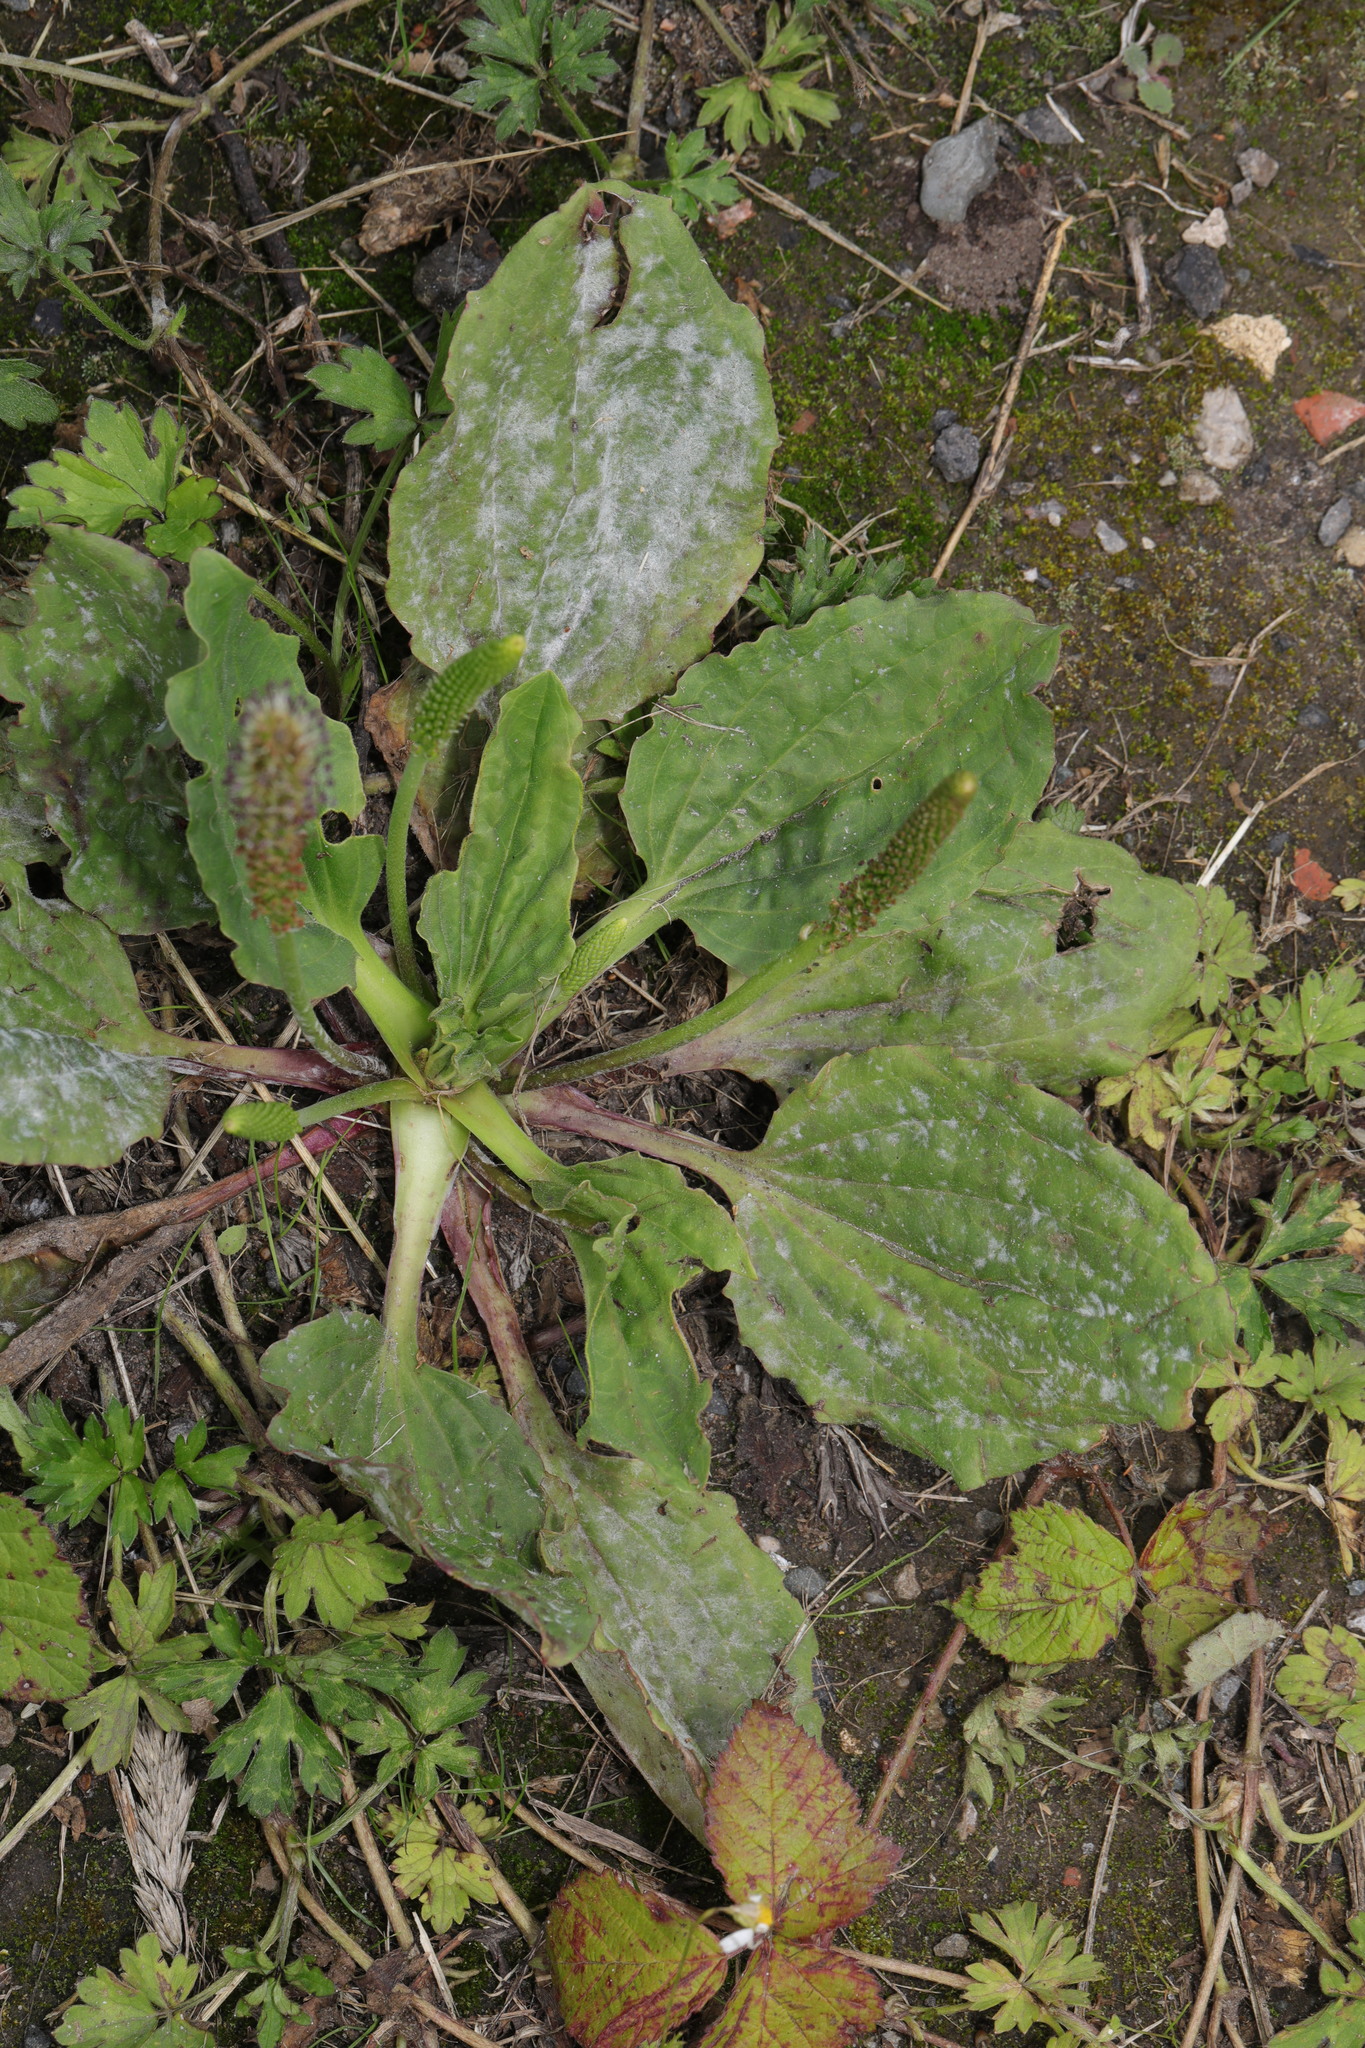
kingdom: Plantae
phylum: Tracheophyta
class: Magnoliopsida
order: Lamiales
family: Plantaginaceae
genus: Plantago
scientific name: Plantago major
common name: Common plantain
